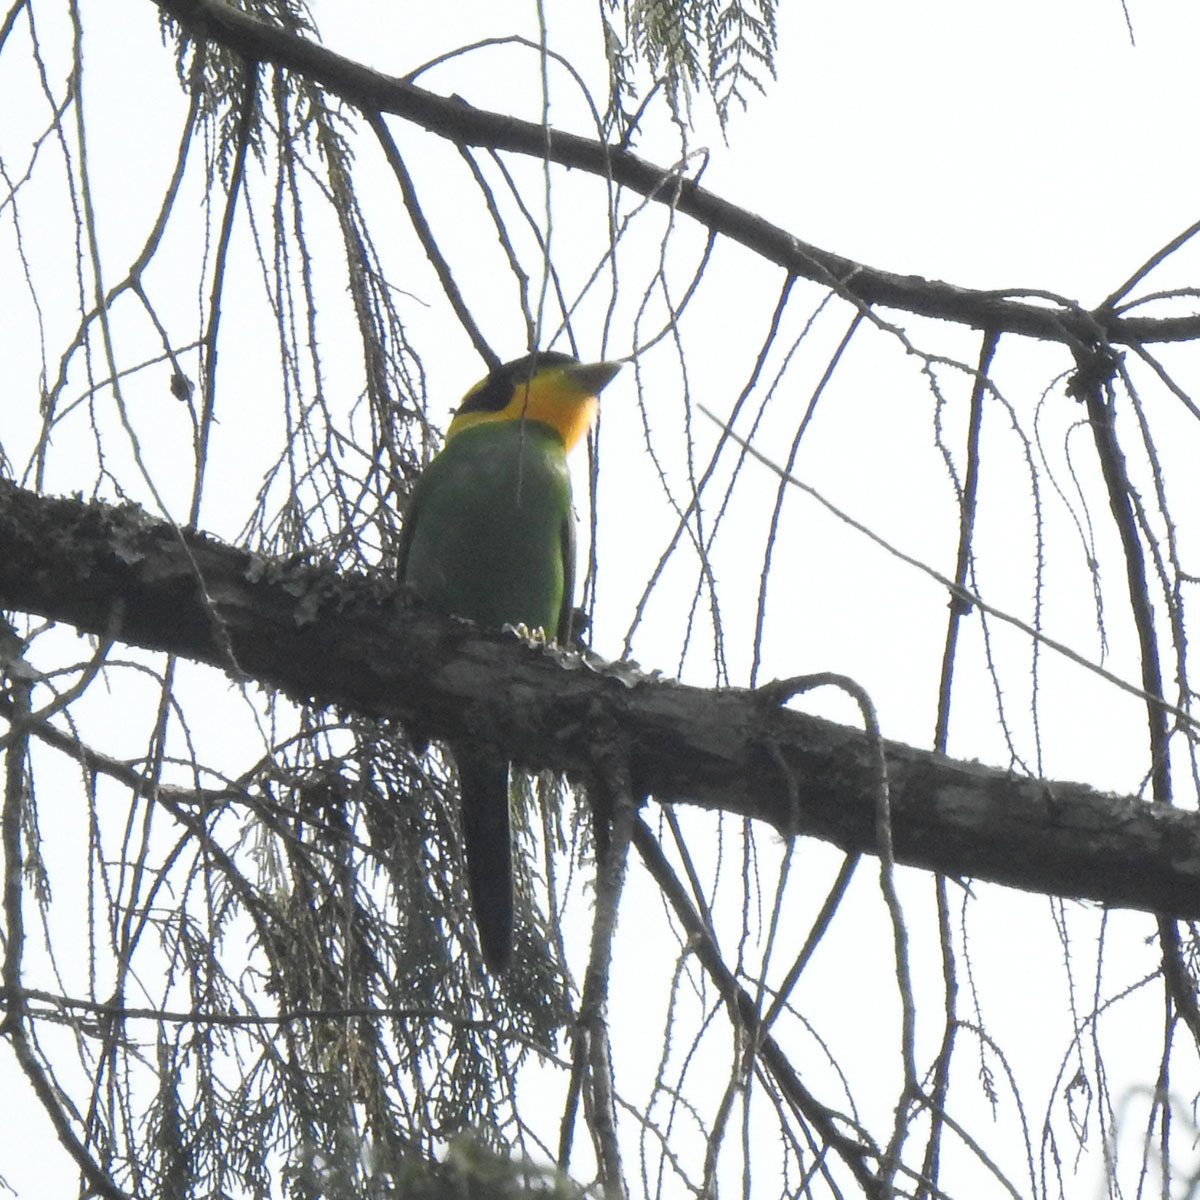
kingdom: Animalia
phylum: Chordata
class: Aves
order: Passeriformes
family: Eurylaimidae
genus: Psarisomus
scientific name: Psarisomus dalhousiae
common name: Long-tailed broadbill
